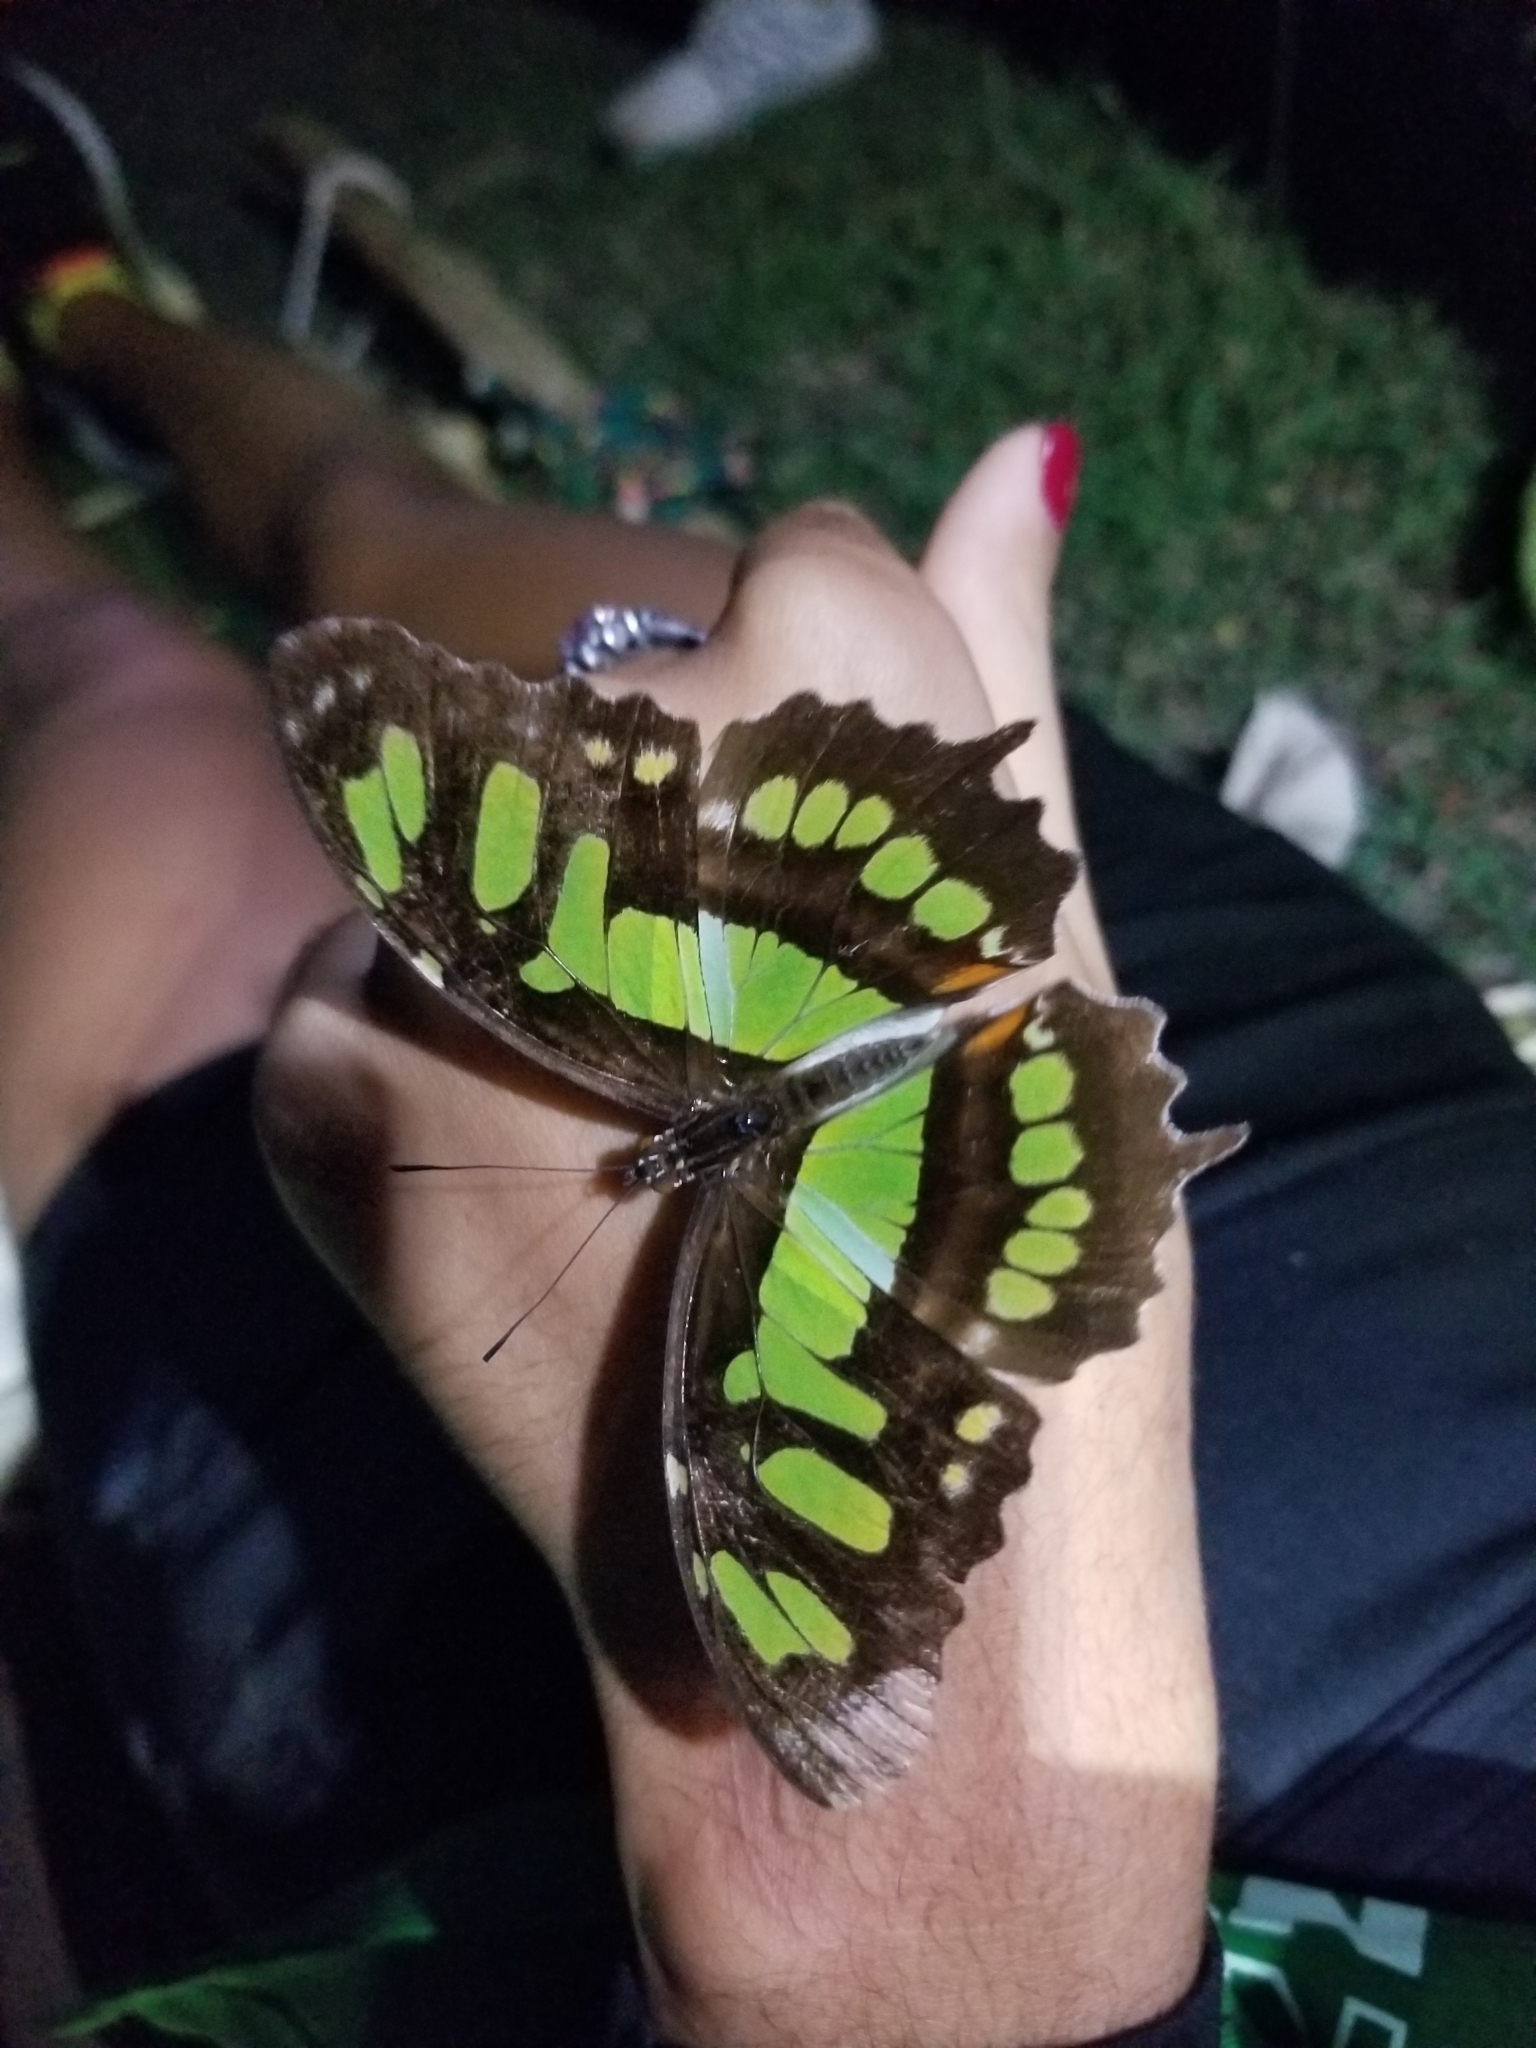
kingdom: Animalia
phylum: Arthropoda
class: Insecta
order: Lepidoptera
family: Nymphalidae
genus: Siproeta
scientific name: Siproeta stelenes
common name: Malachite
